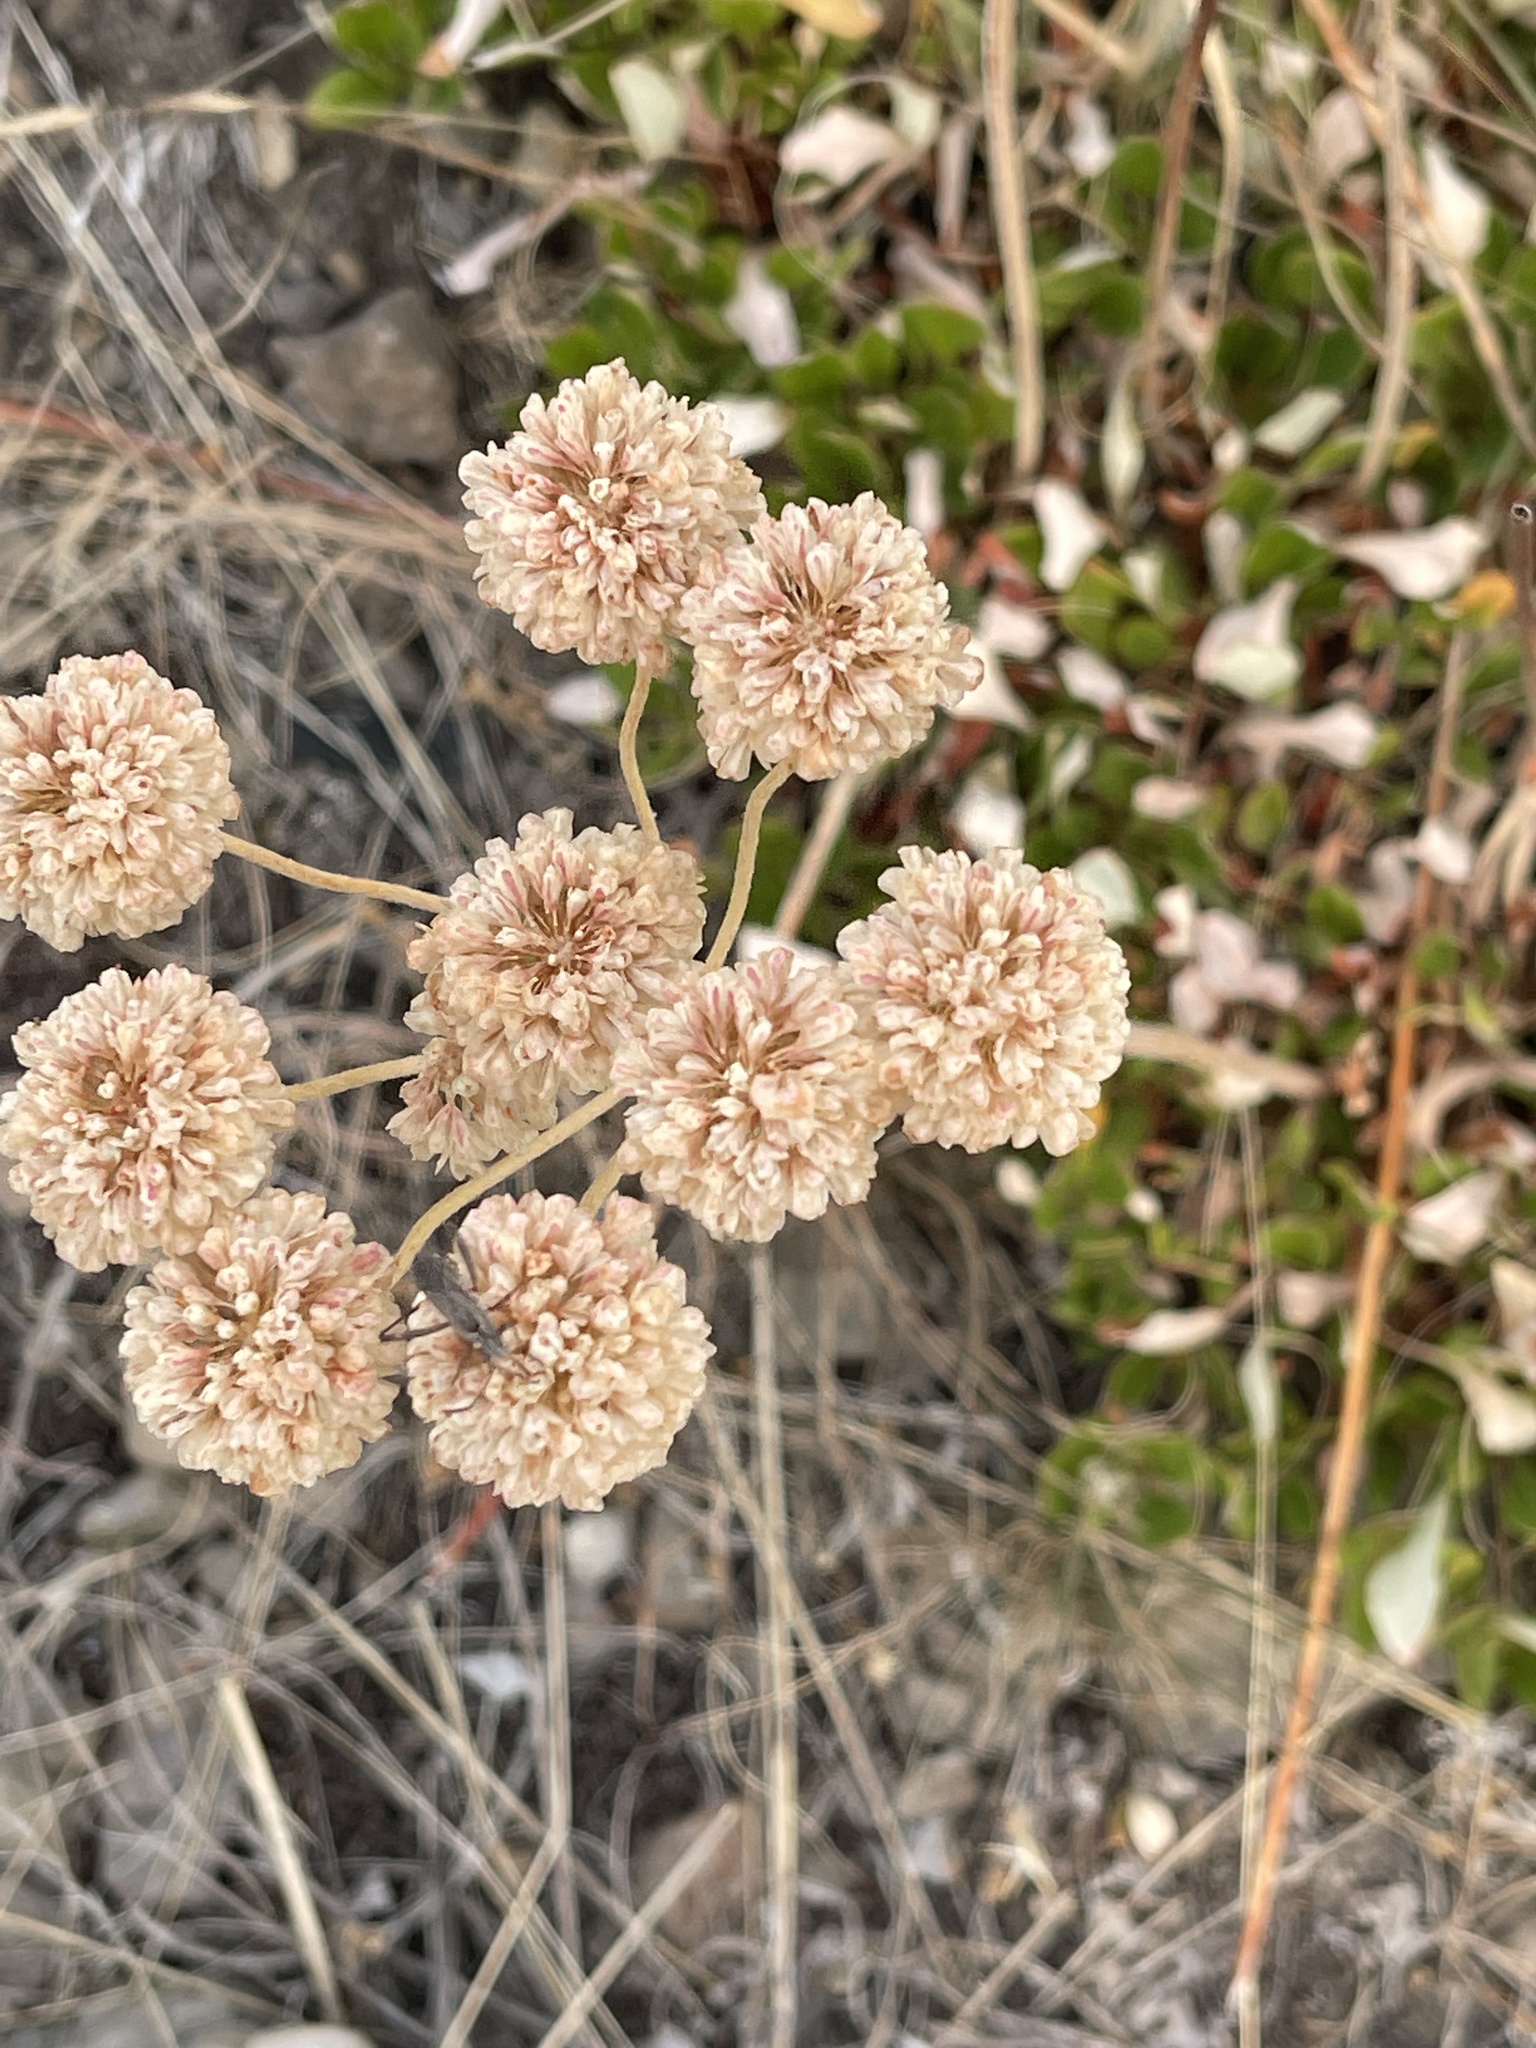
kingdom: Plantae
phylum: Tracheophyta
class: Magnoliopsida
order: Caryophyllales
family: Polygonaceae
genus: Eriogonum
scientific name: Eriogonum umbellatum
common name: Sulfur-buckwheat
